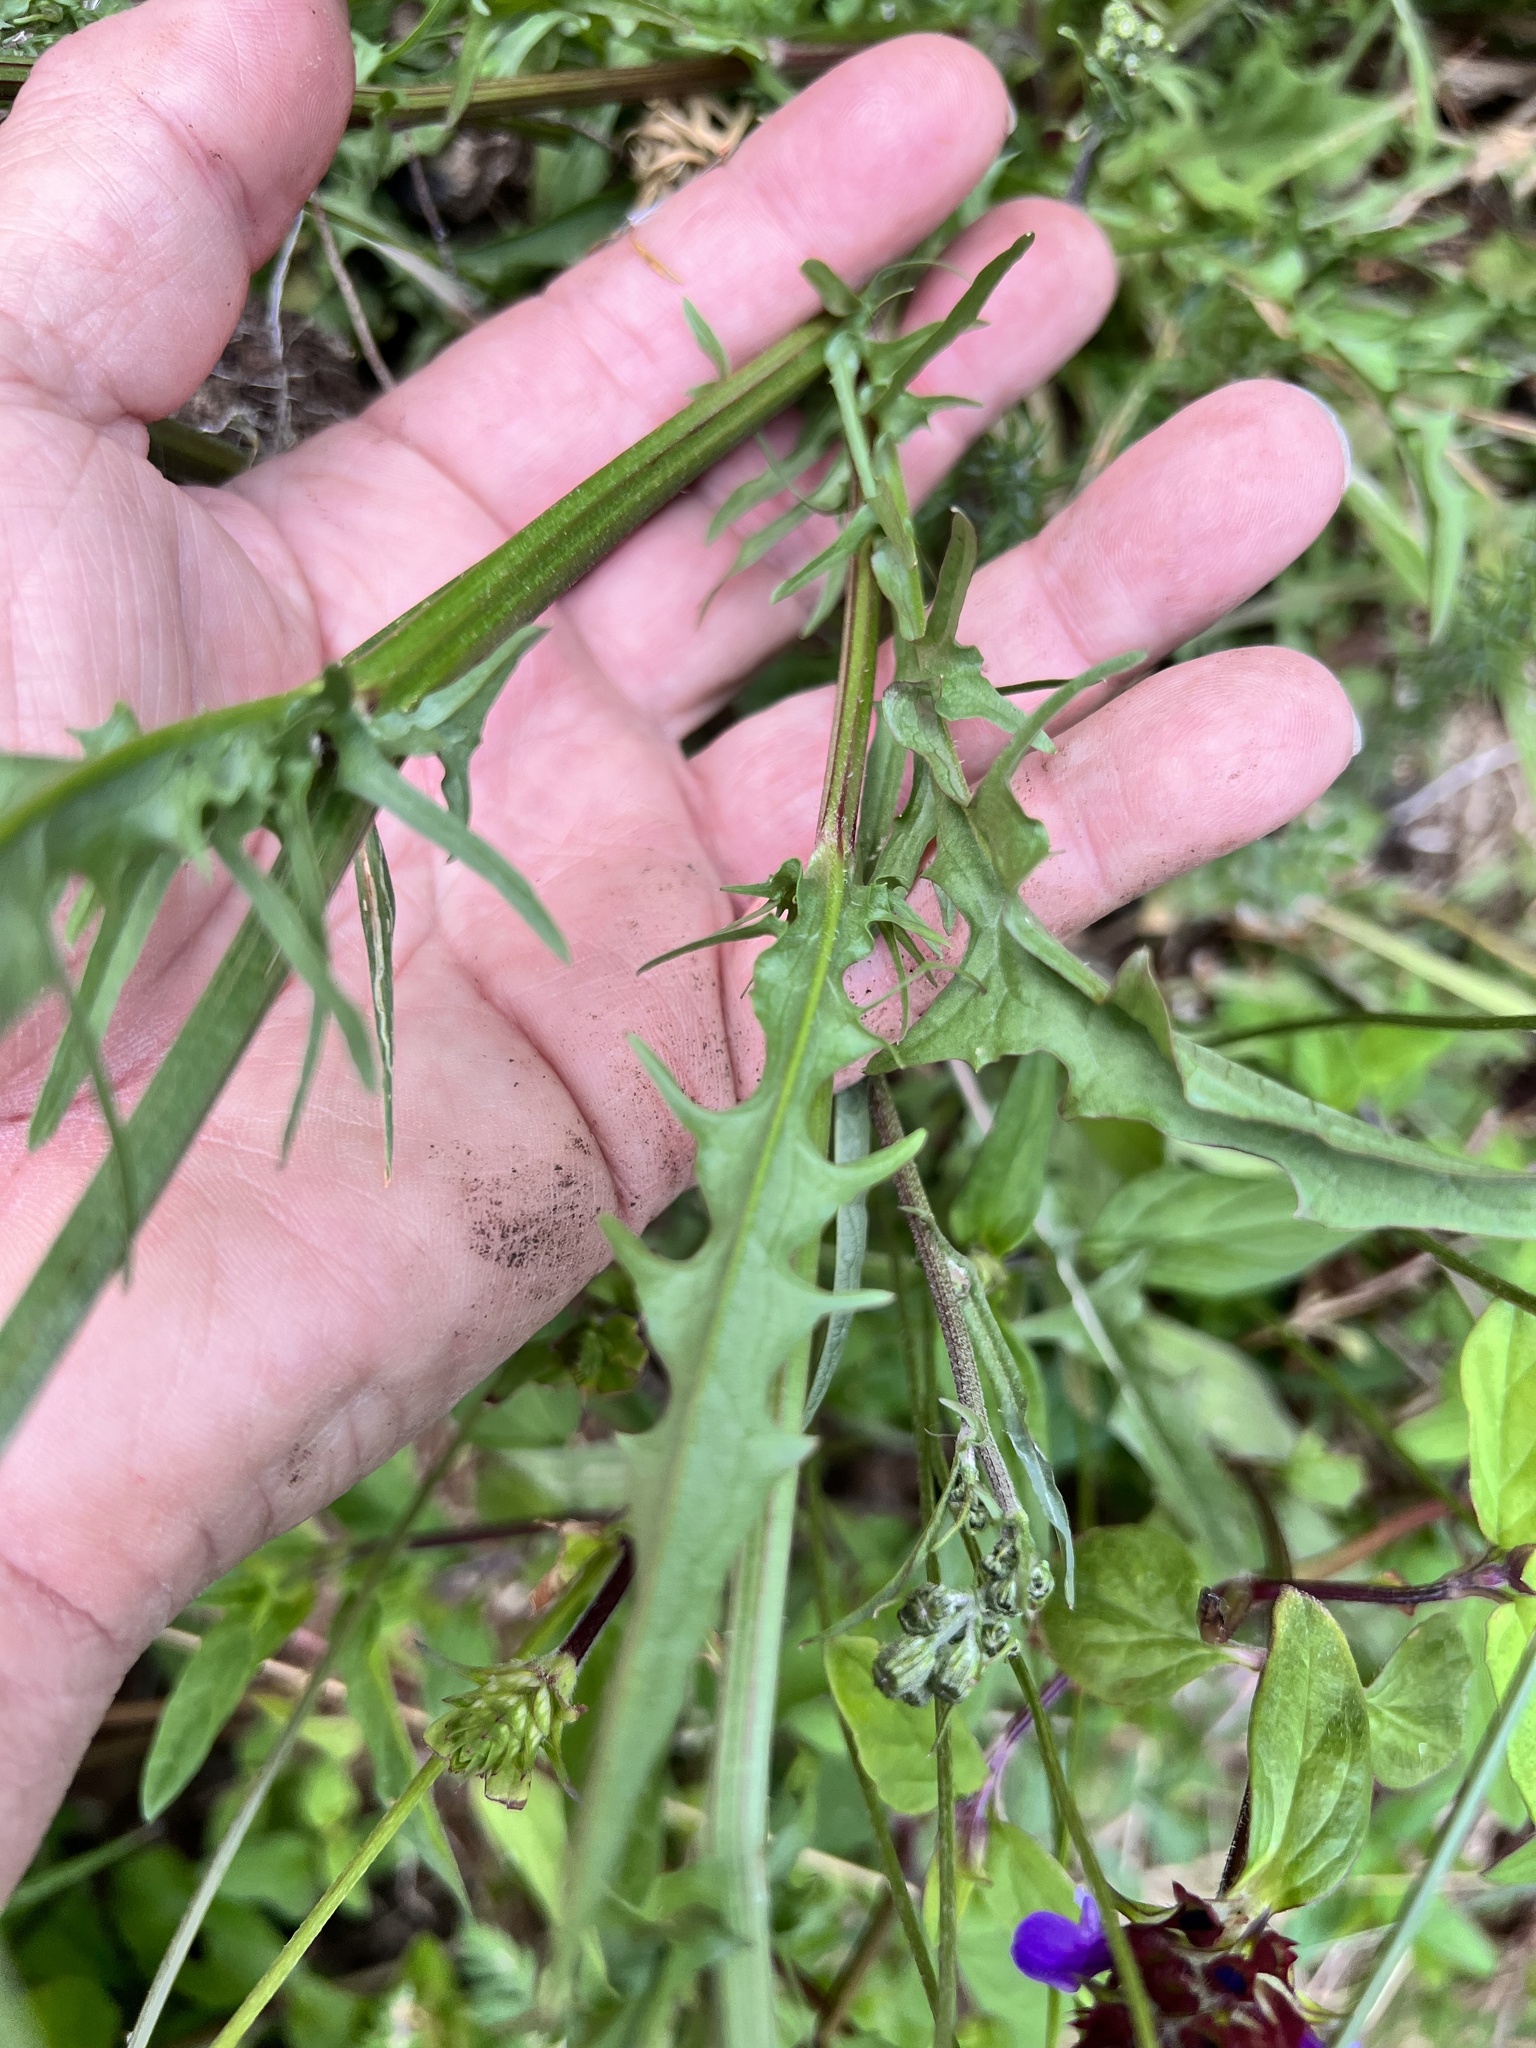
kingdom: Plantae
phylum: Tracheophyta
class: Magnoliopsida
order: Asterales
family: Asteraceae
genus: Crepis
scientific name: Crepis capillaris
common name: Smooth hawksbeard
